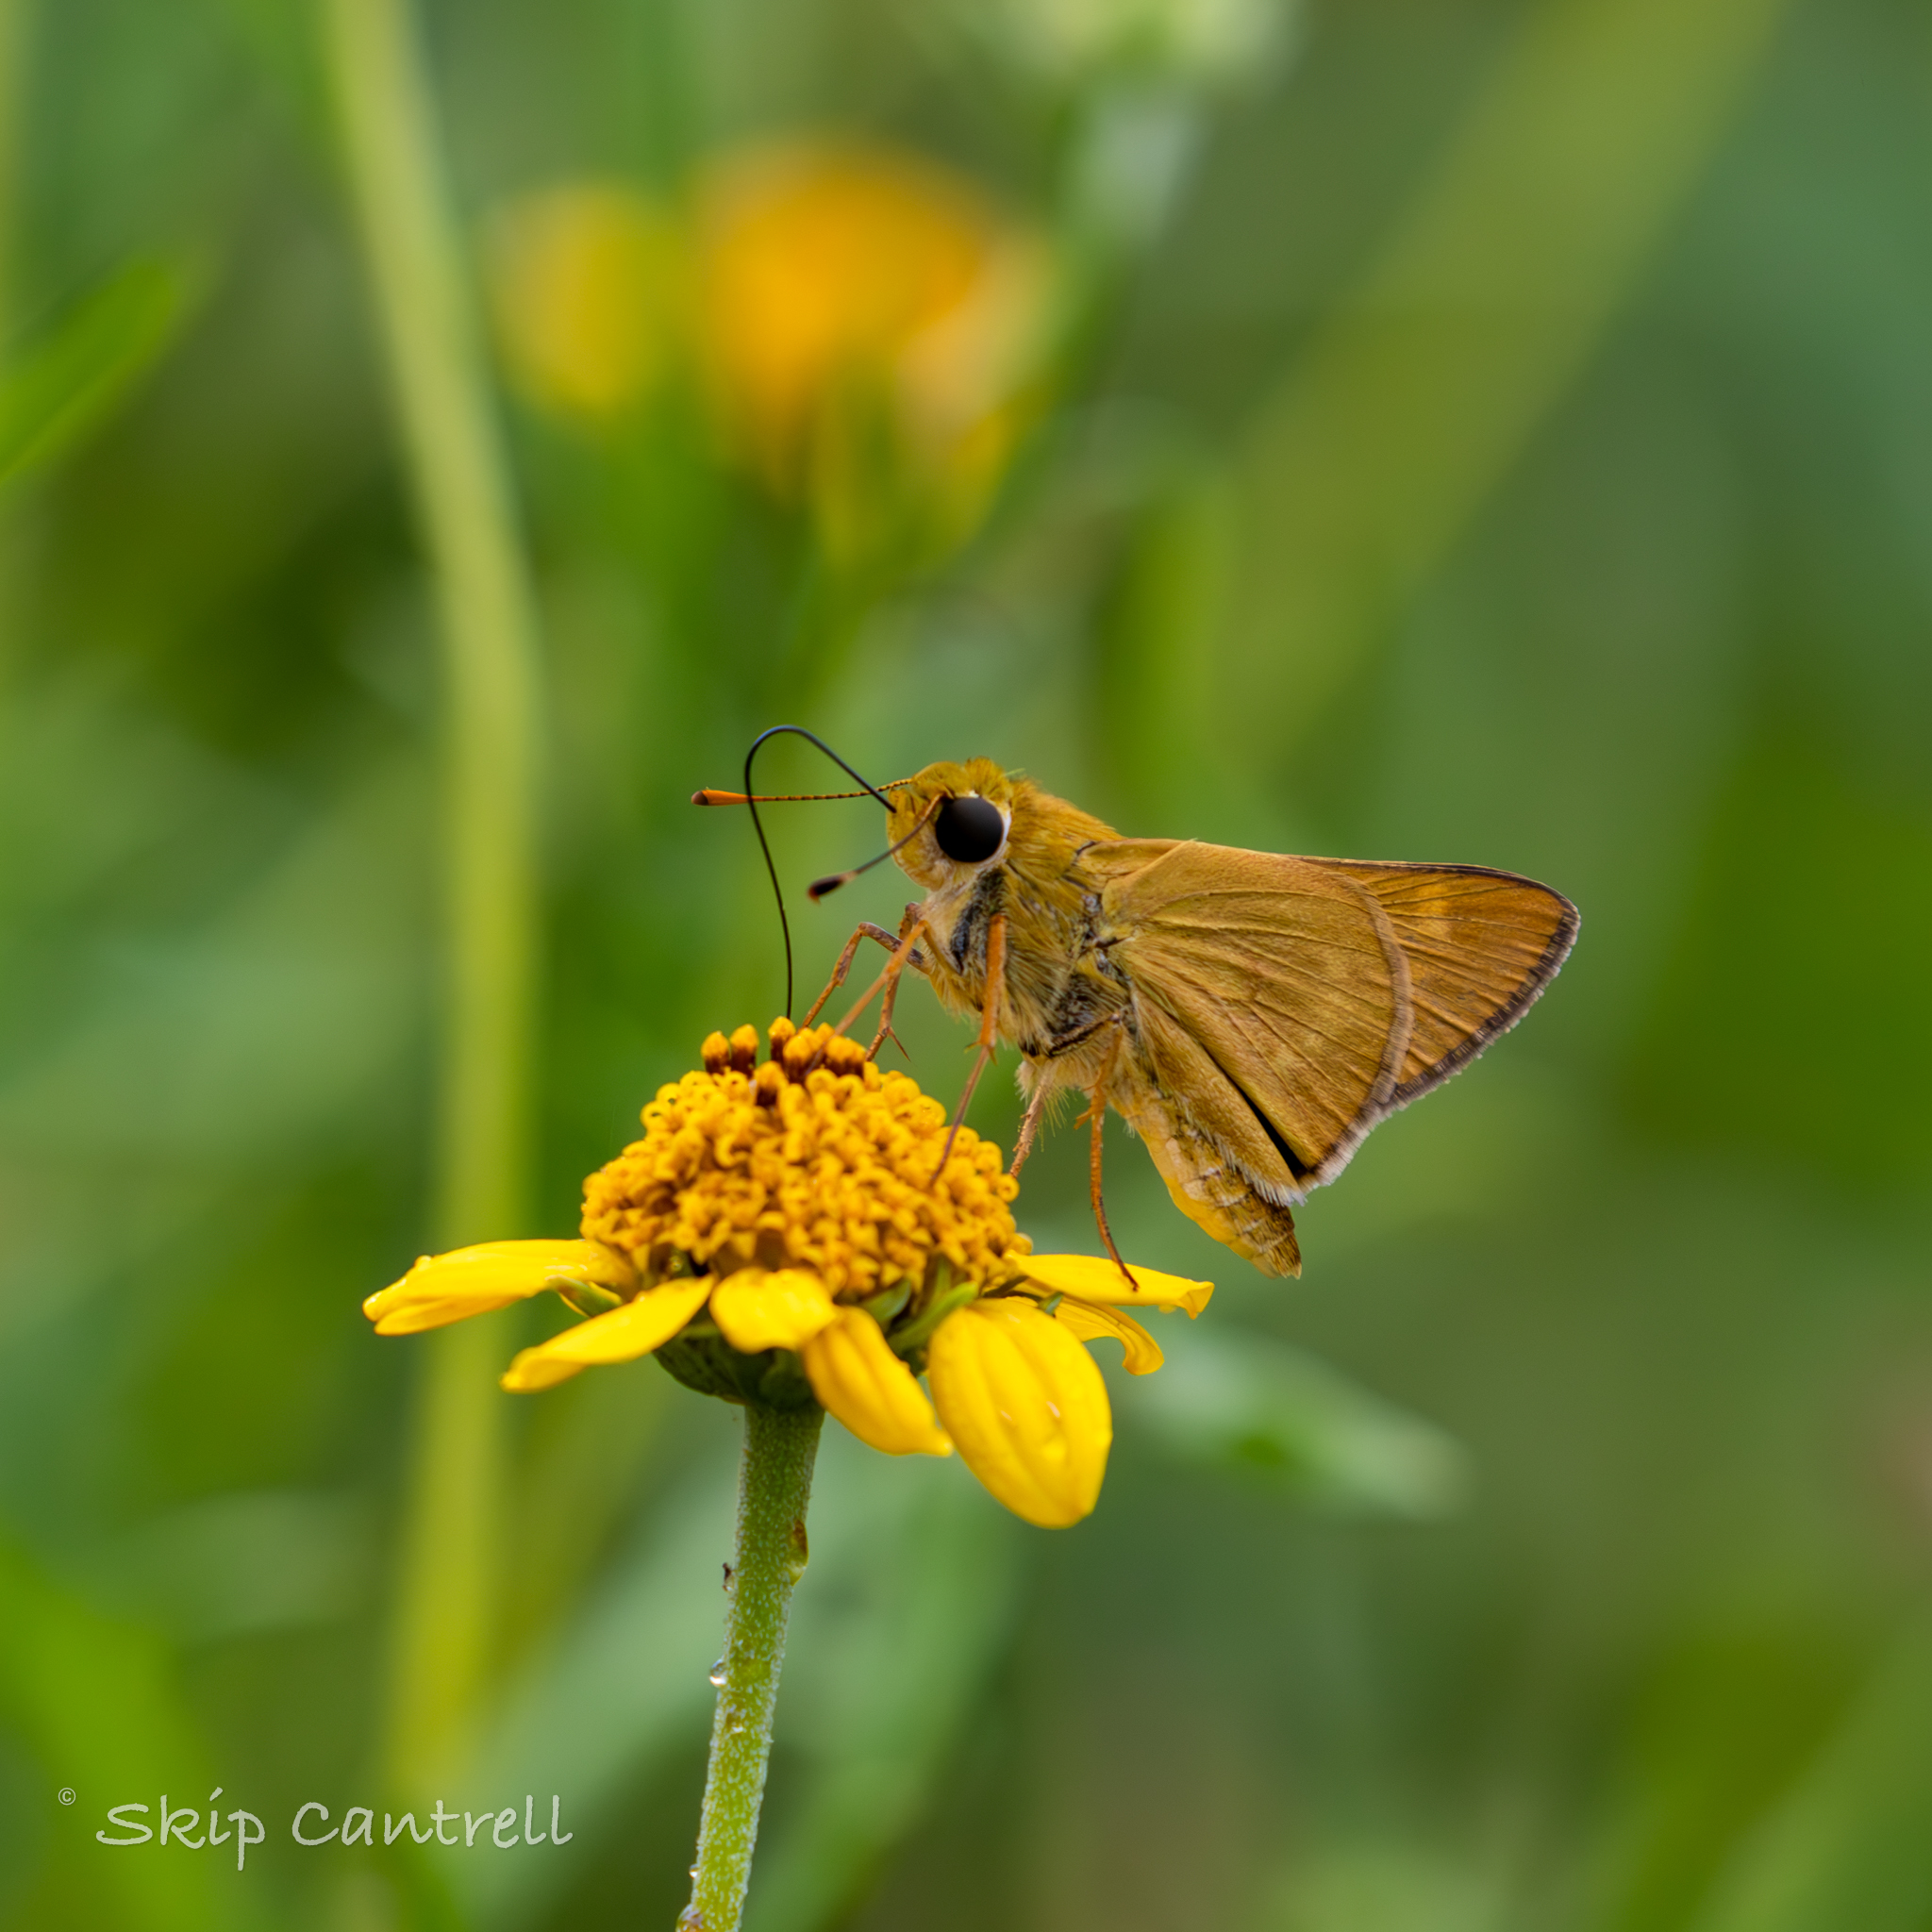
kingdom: Animalia
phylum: Arthropoda
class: Insecta
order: Lepidoptera
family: Hesperiidae
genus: Mellana
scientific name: Mellana eulogius
